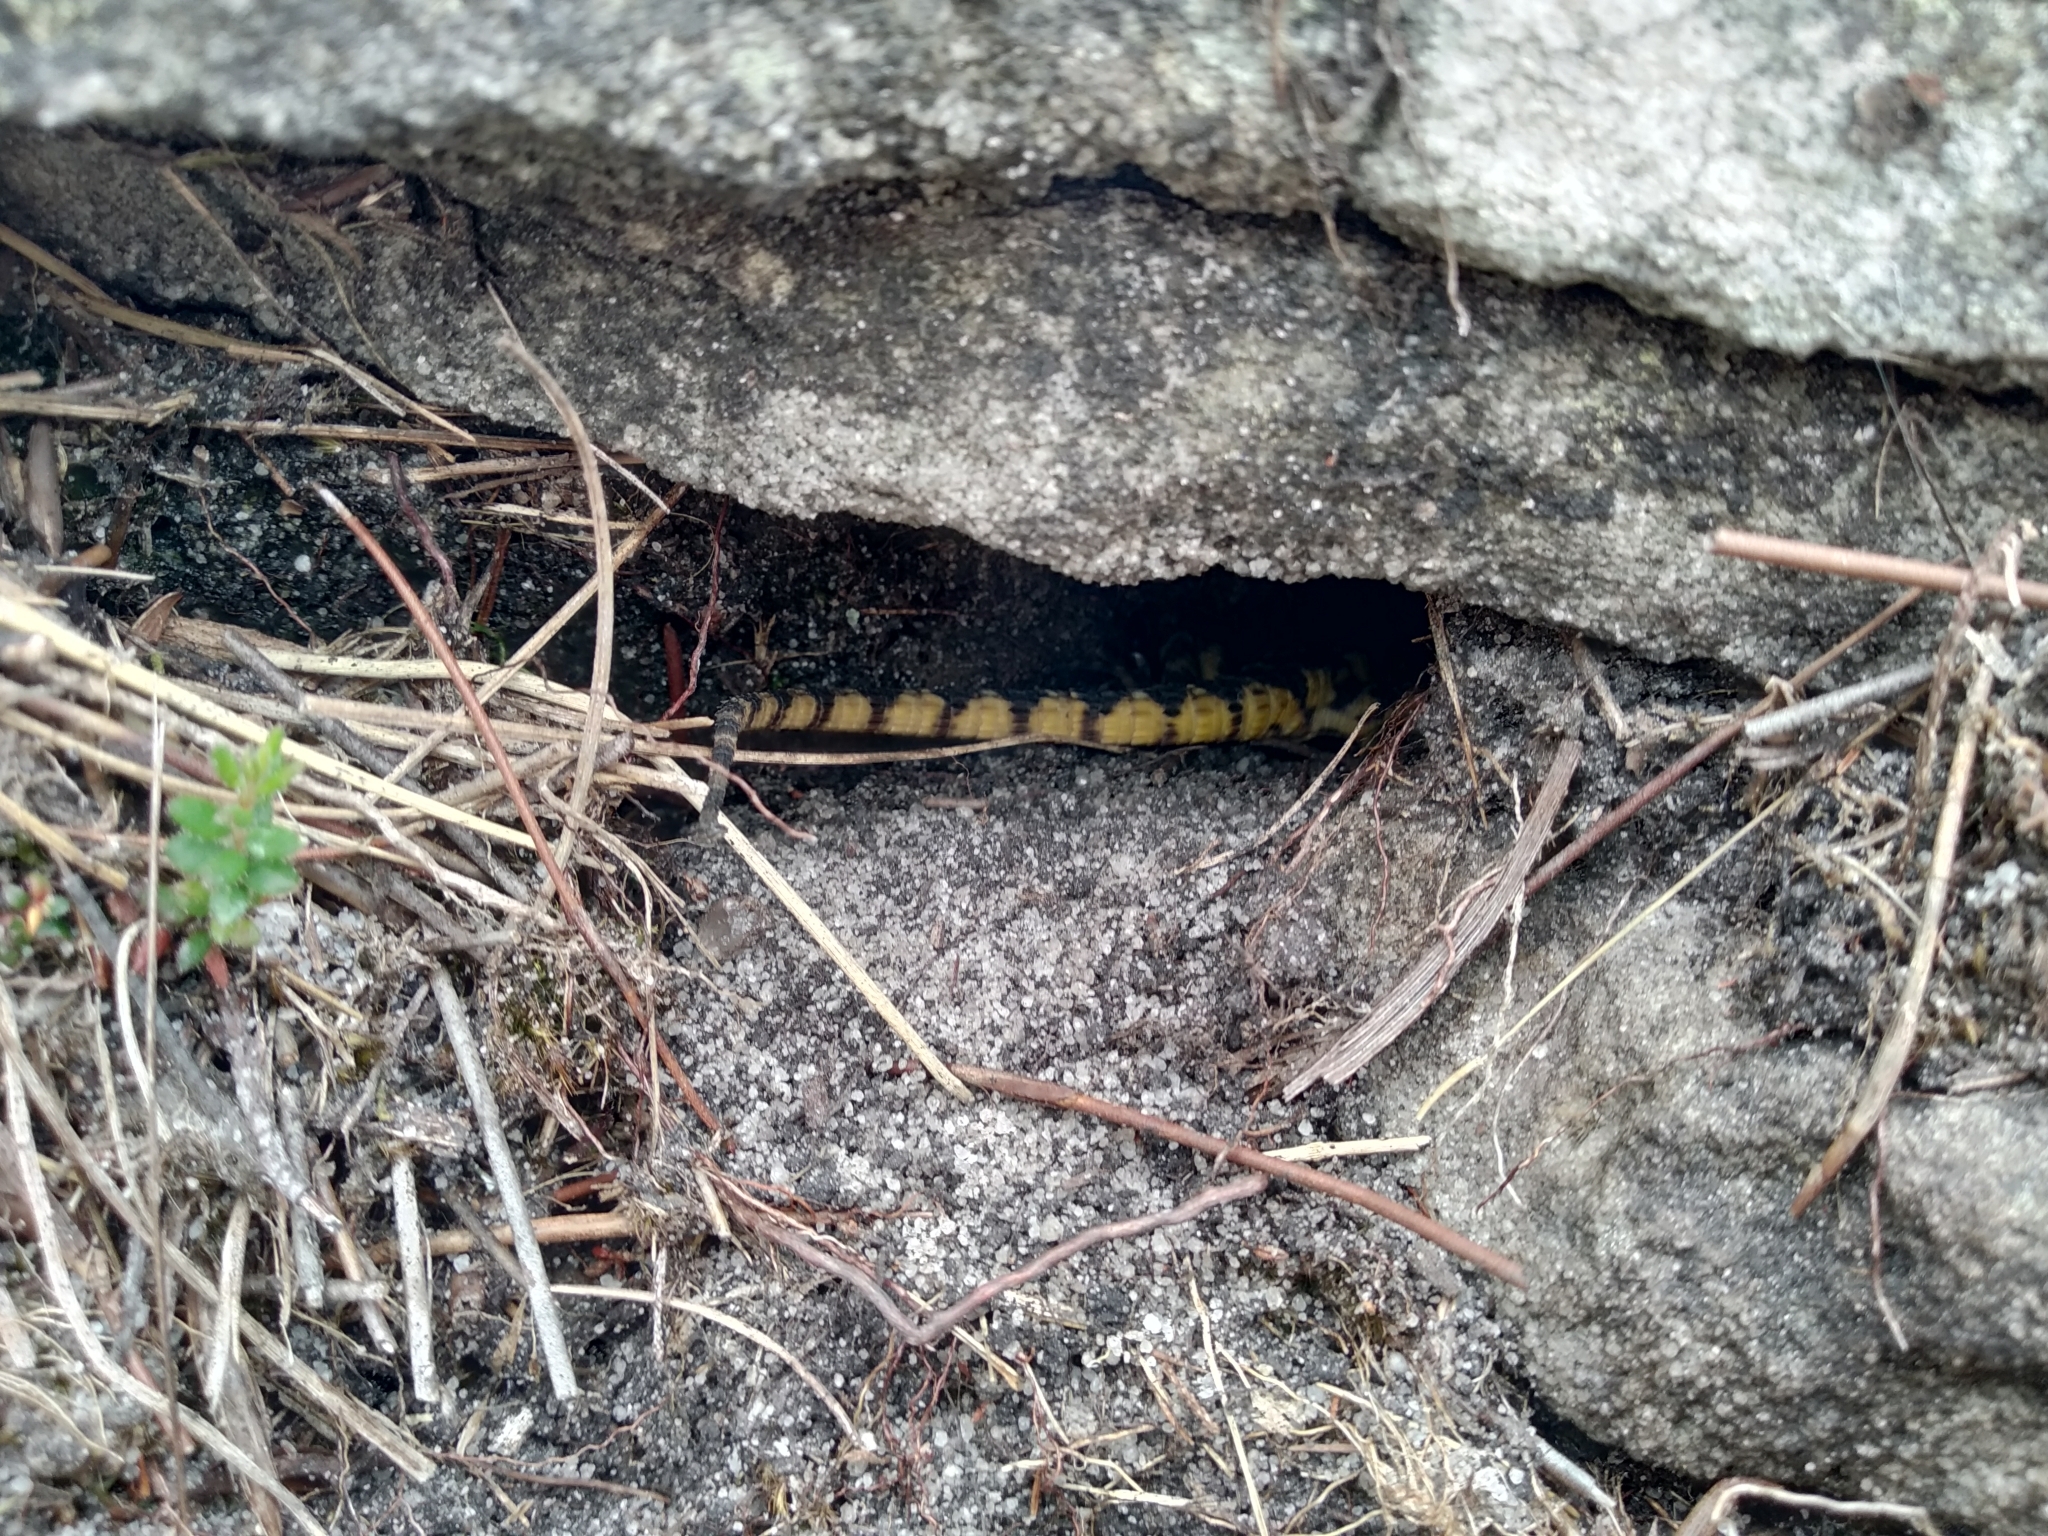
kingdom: Animalia
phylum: Chordata
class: Squamata
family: Cordylidae
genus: Pseudocordylus
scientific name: Pseudocordylus microlepidotus
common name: Cape crag lizard
